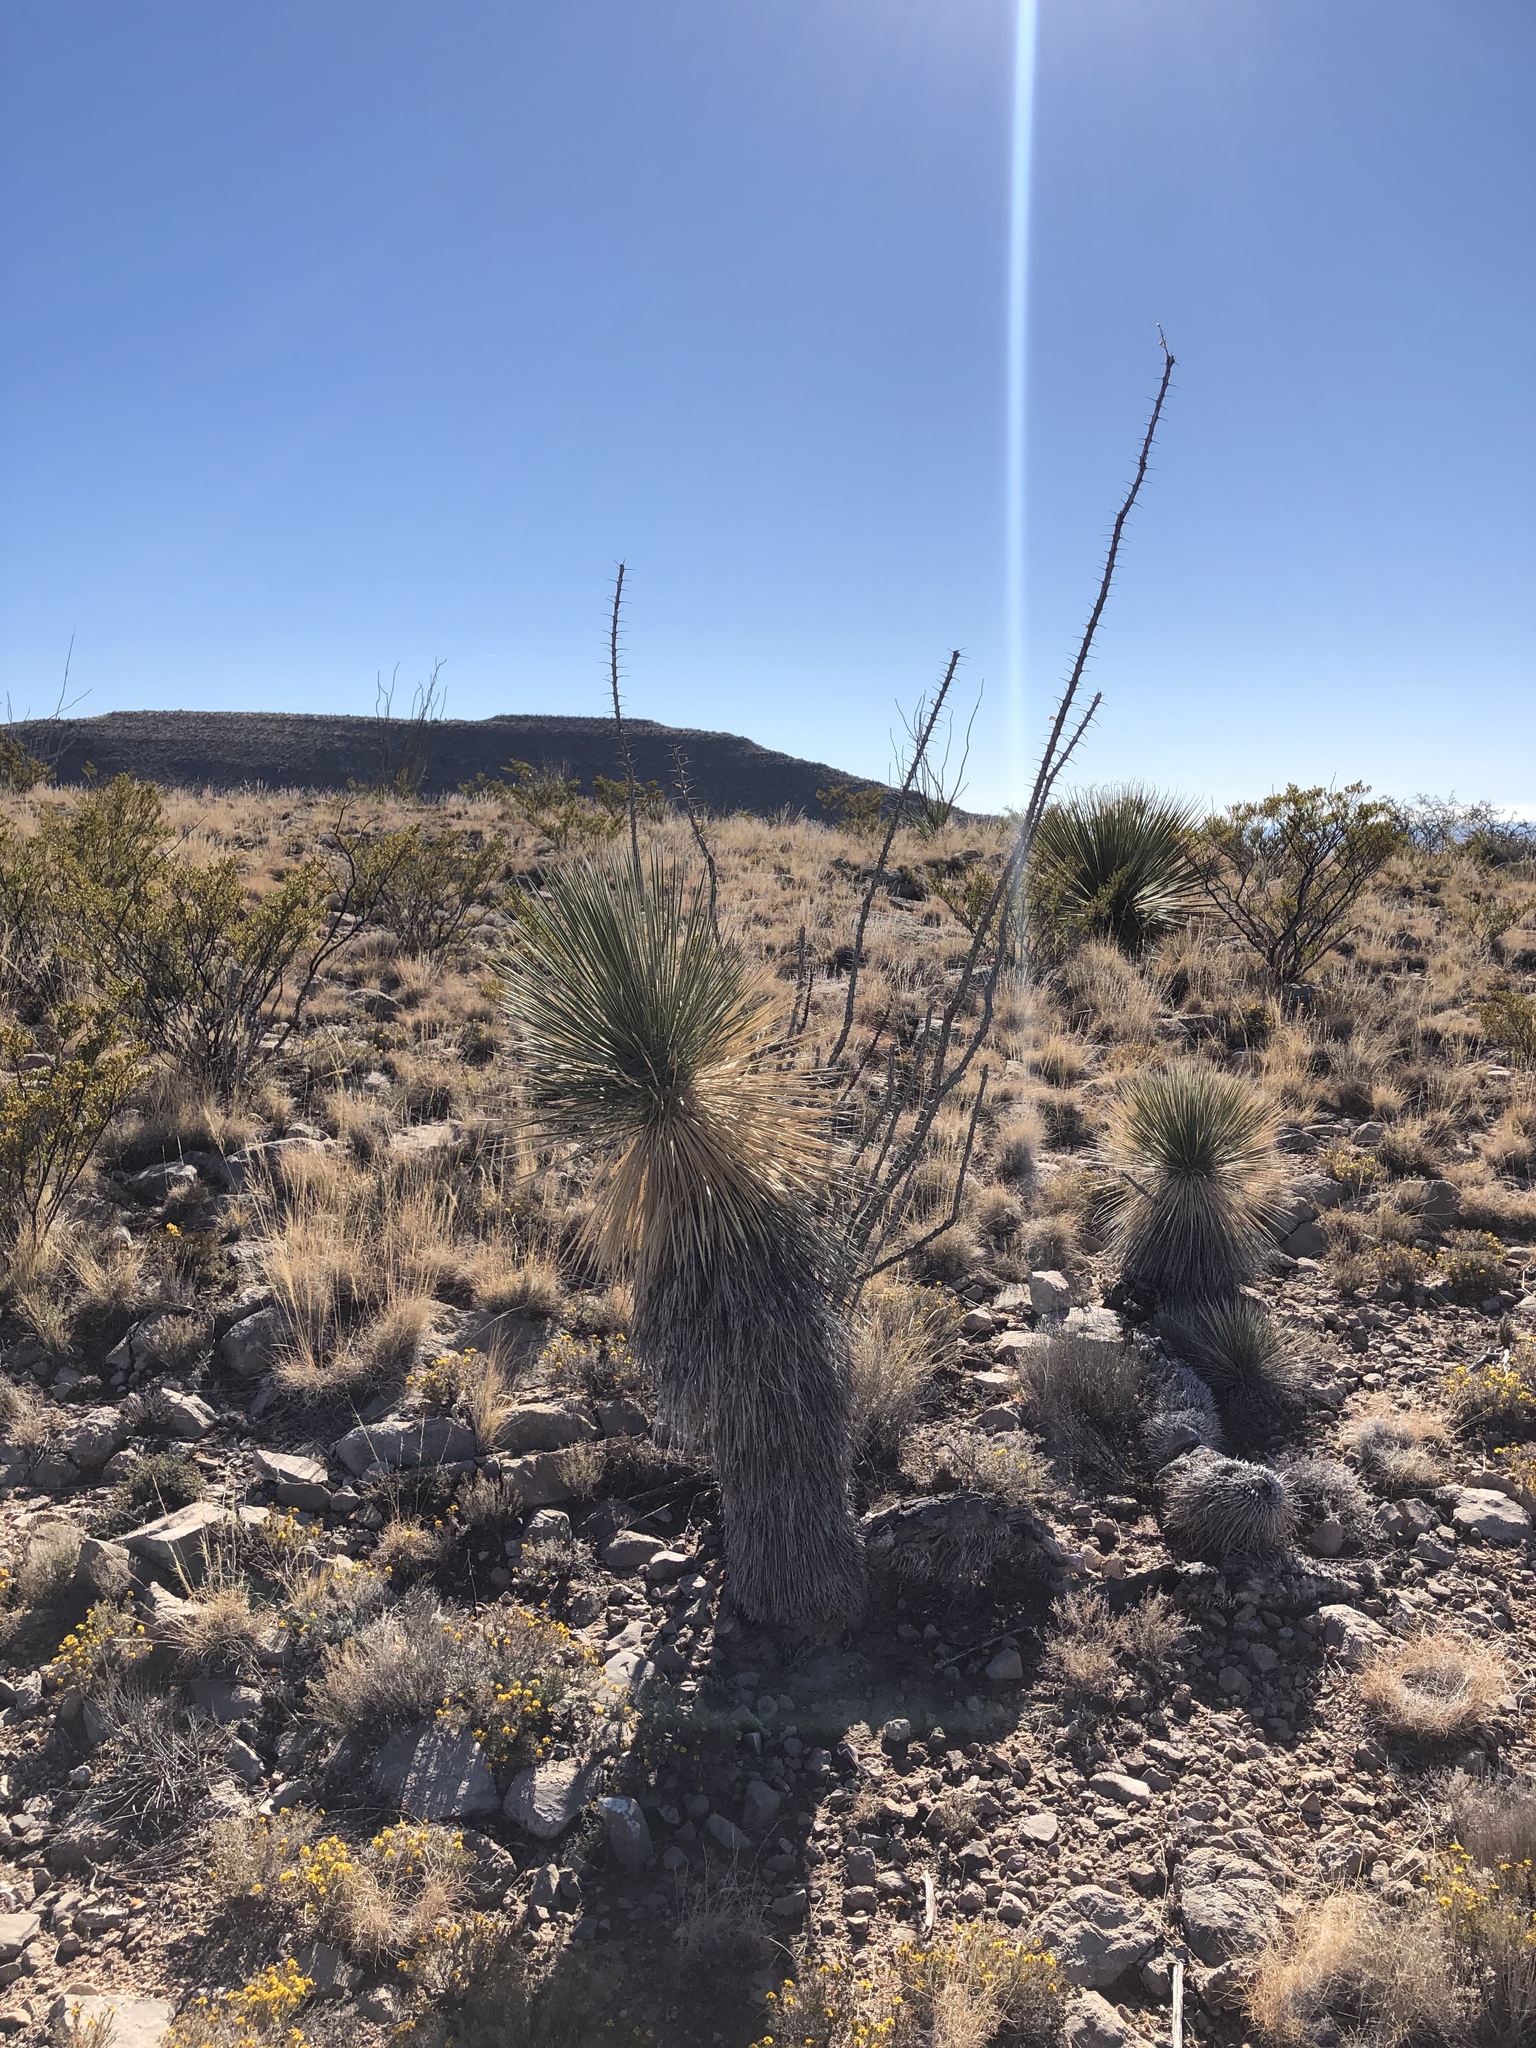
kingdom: Plantae
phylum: Tracheophyta
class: Liliopsida
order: Asparagales
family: Asparagaceae
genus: Yucca
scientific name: Yucca elata
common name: Palmella
